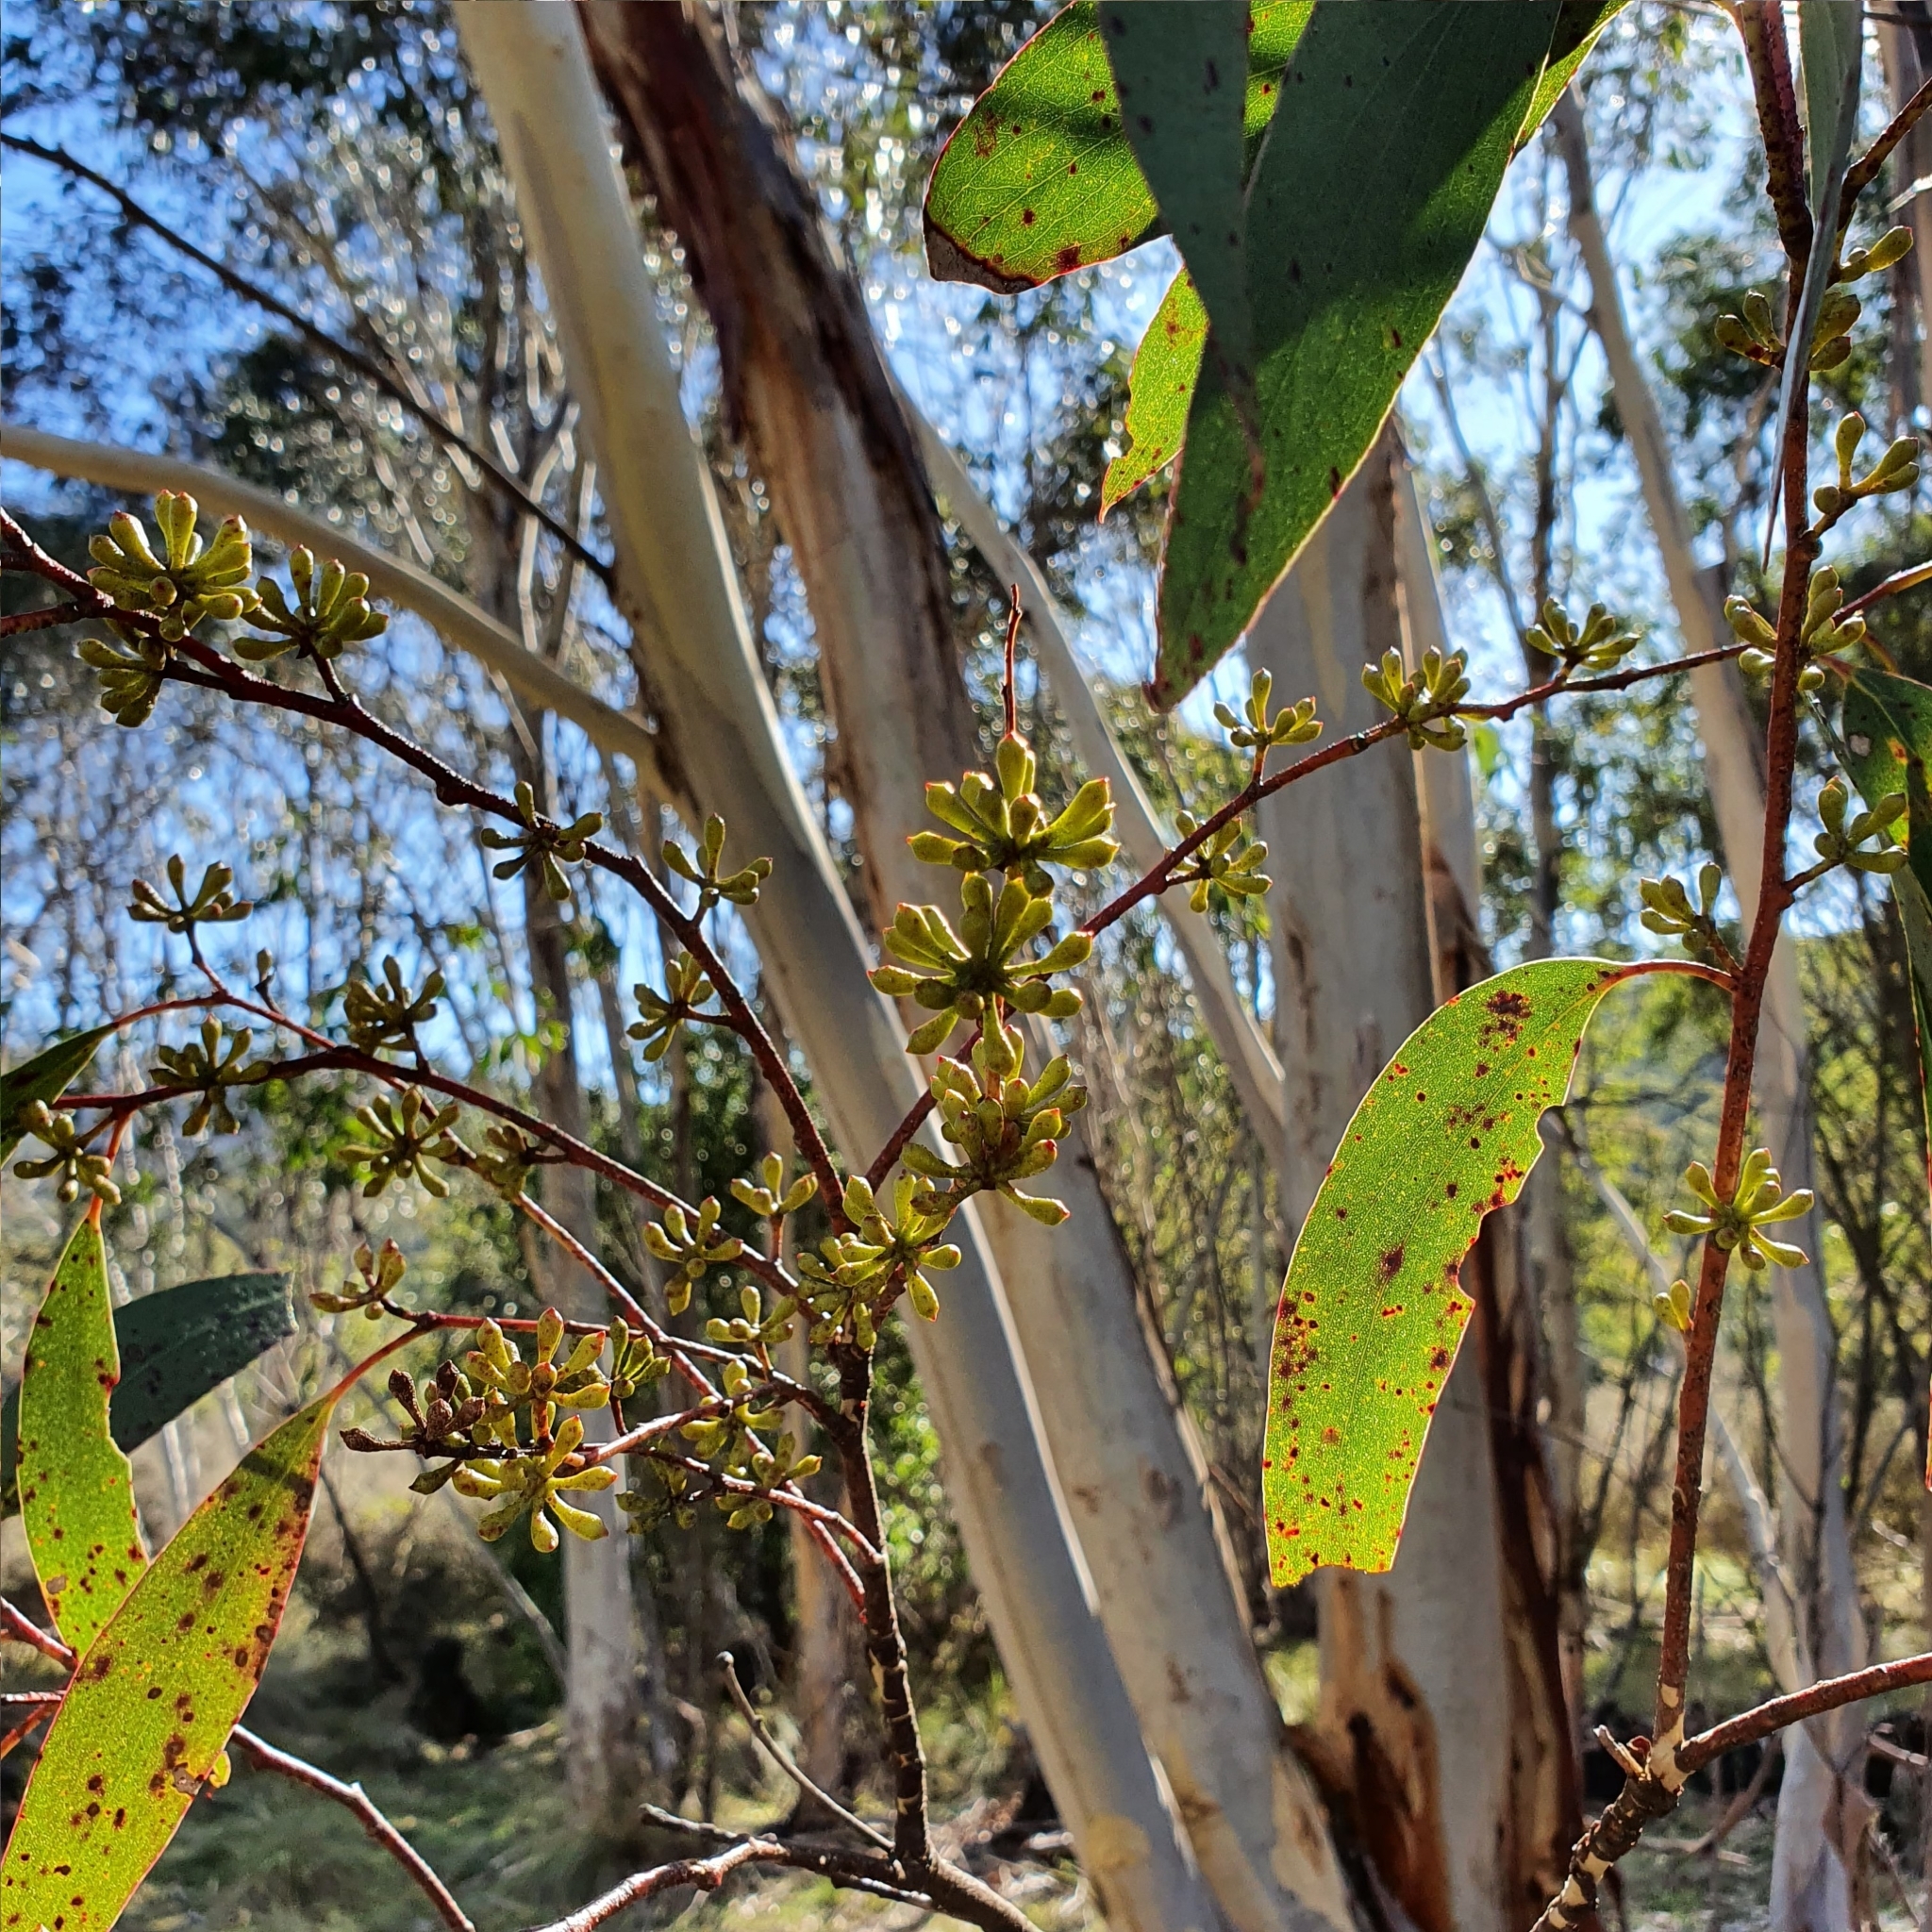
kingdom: Plantae
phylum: Tracheophyta
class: Magnoliopsida
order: Myrtales
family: Myrtaceae
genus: Eucalyptus
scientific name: Eucalyptus pauciflora
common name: Snow gum
